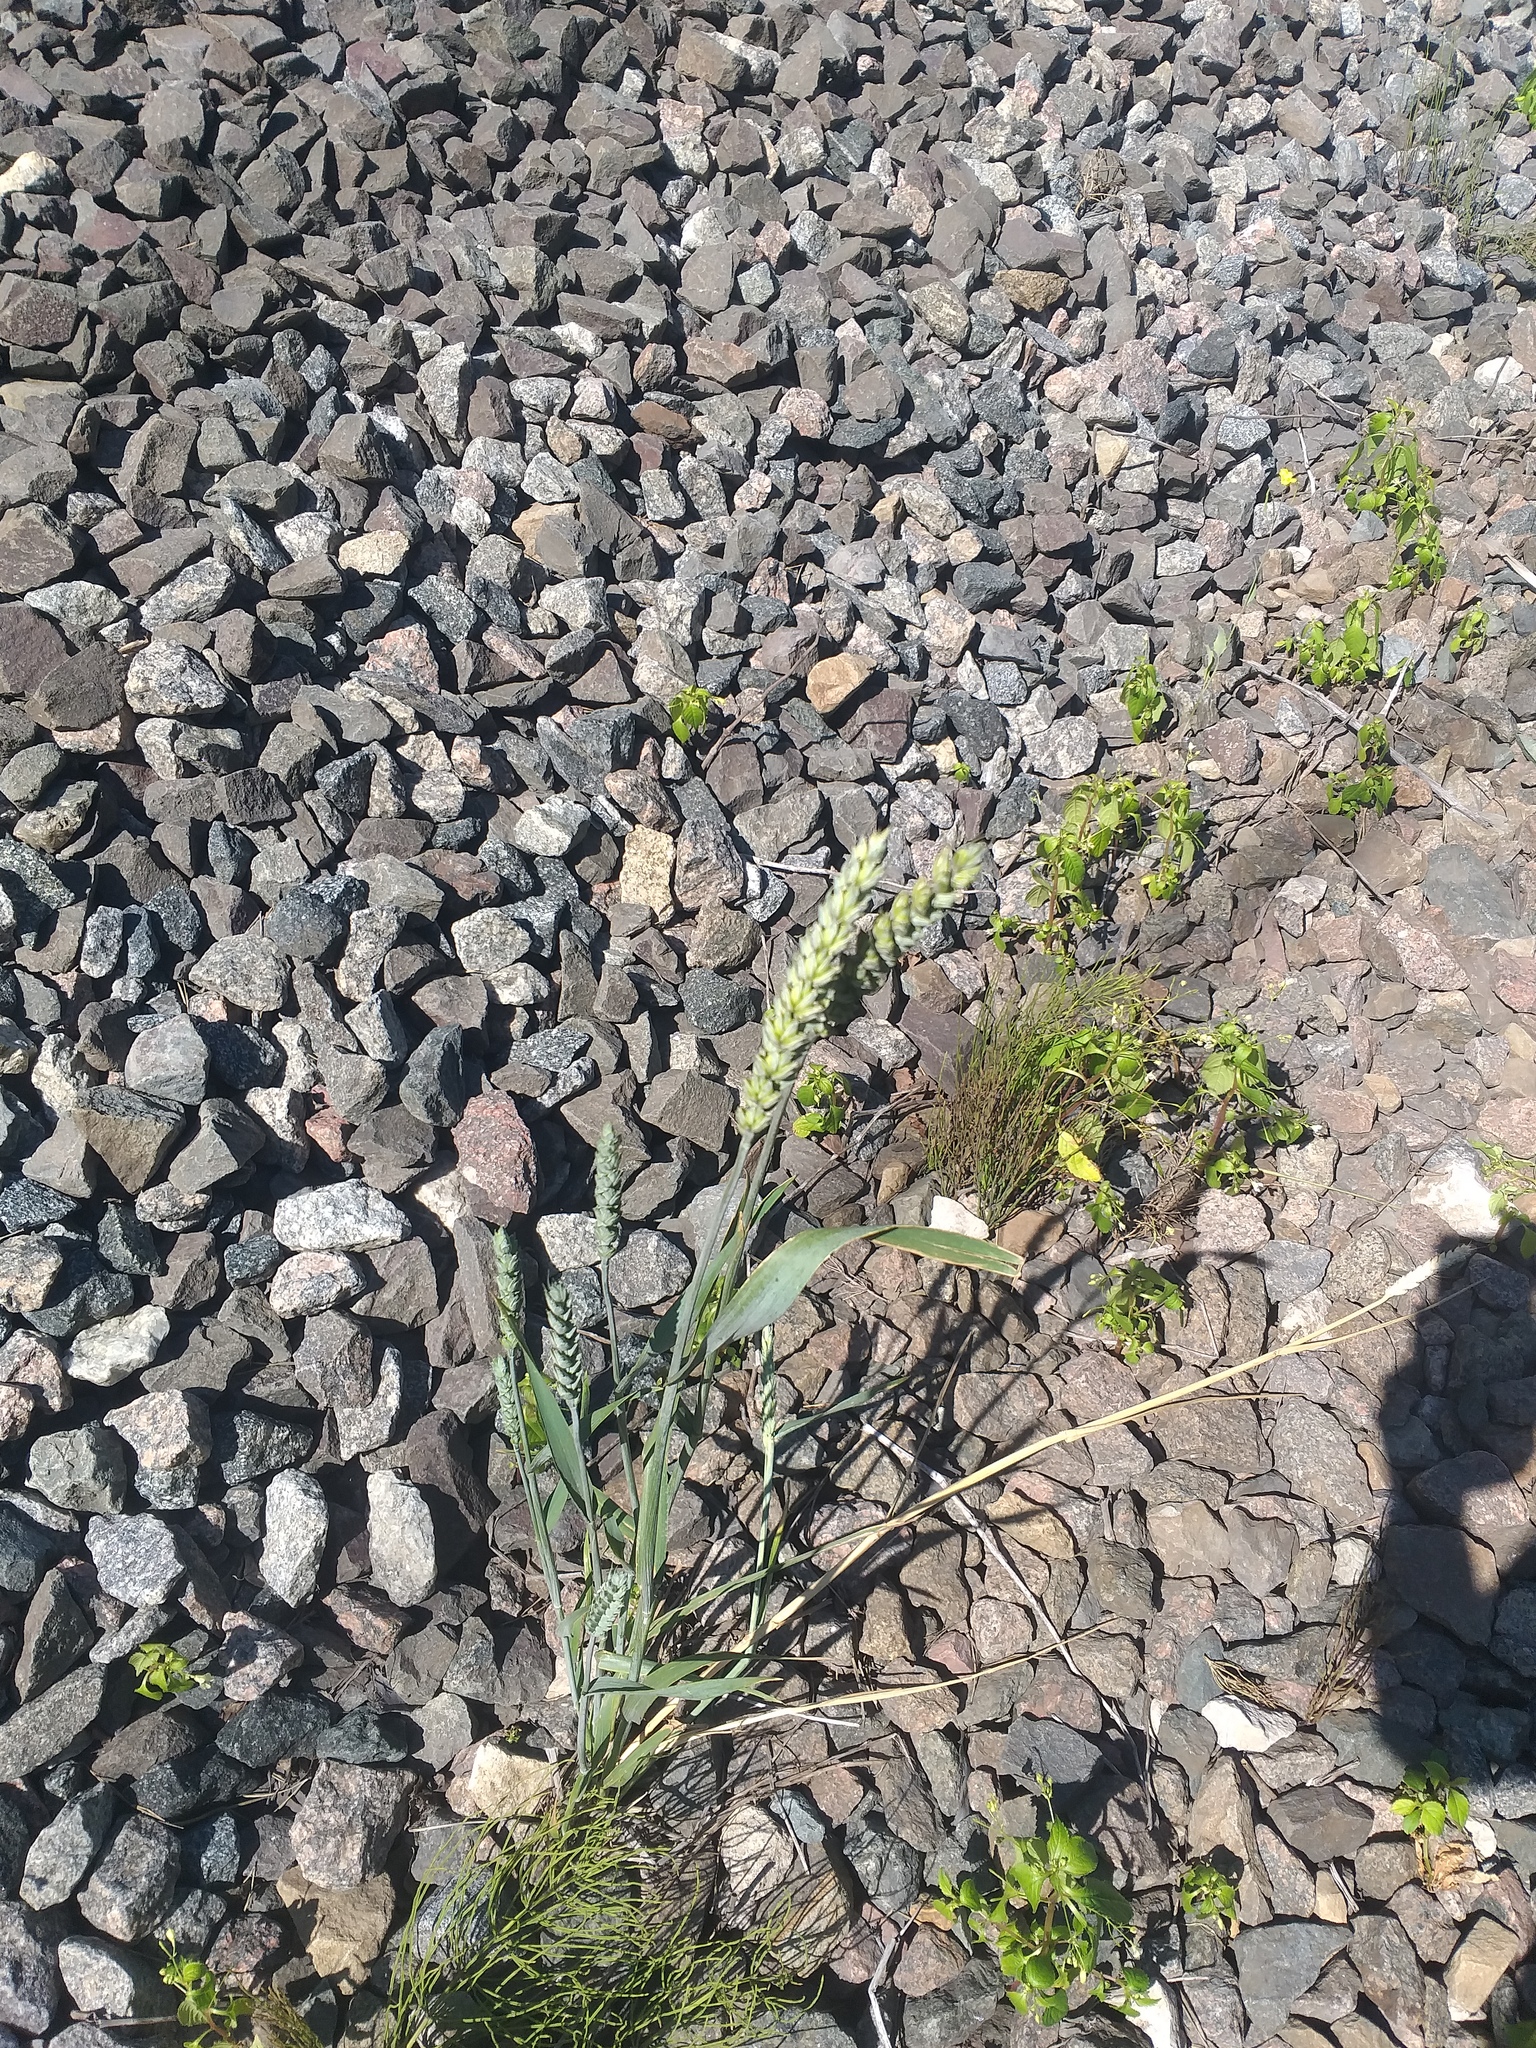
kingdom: Plantae
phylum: Tracheophyta
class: Liliopsida
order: Poales
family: Poaceae
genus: Triticum
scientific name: Triticum aestivum
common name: Common wheat
